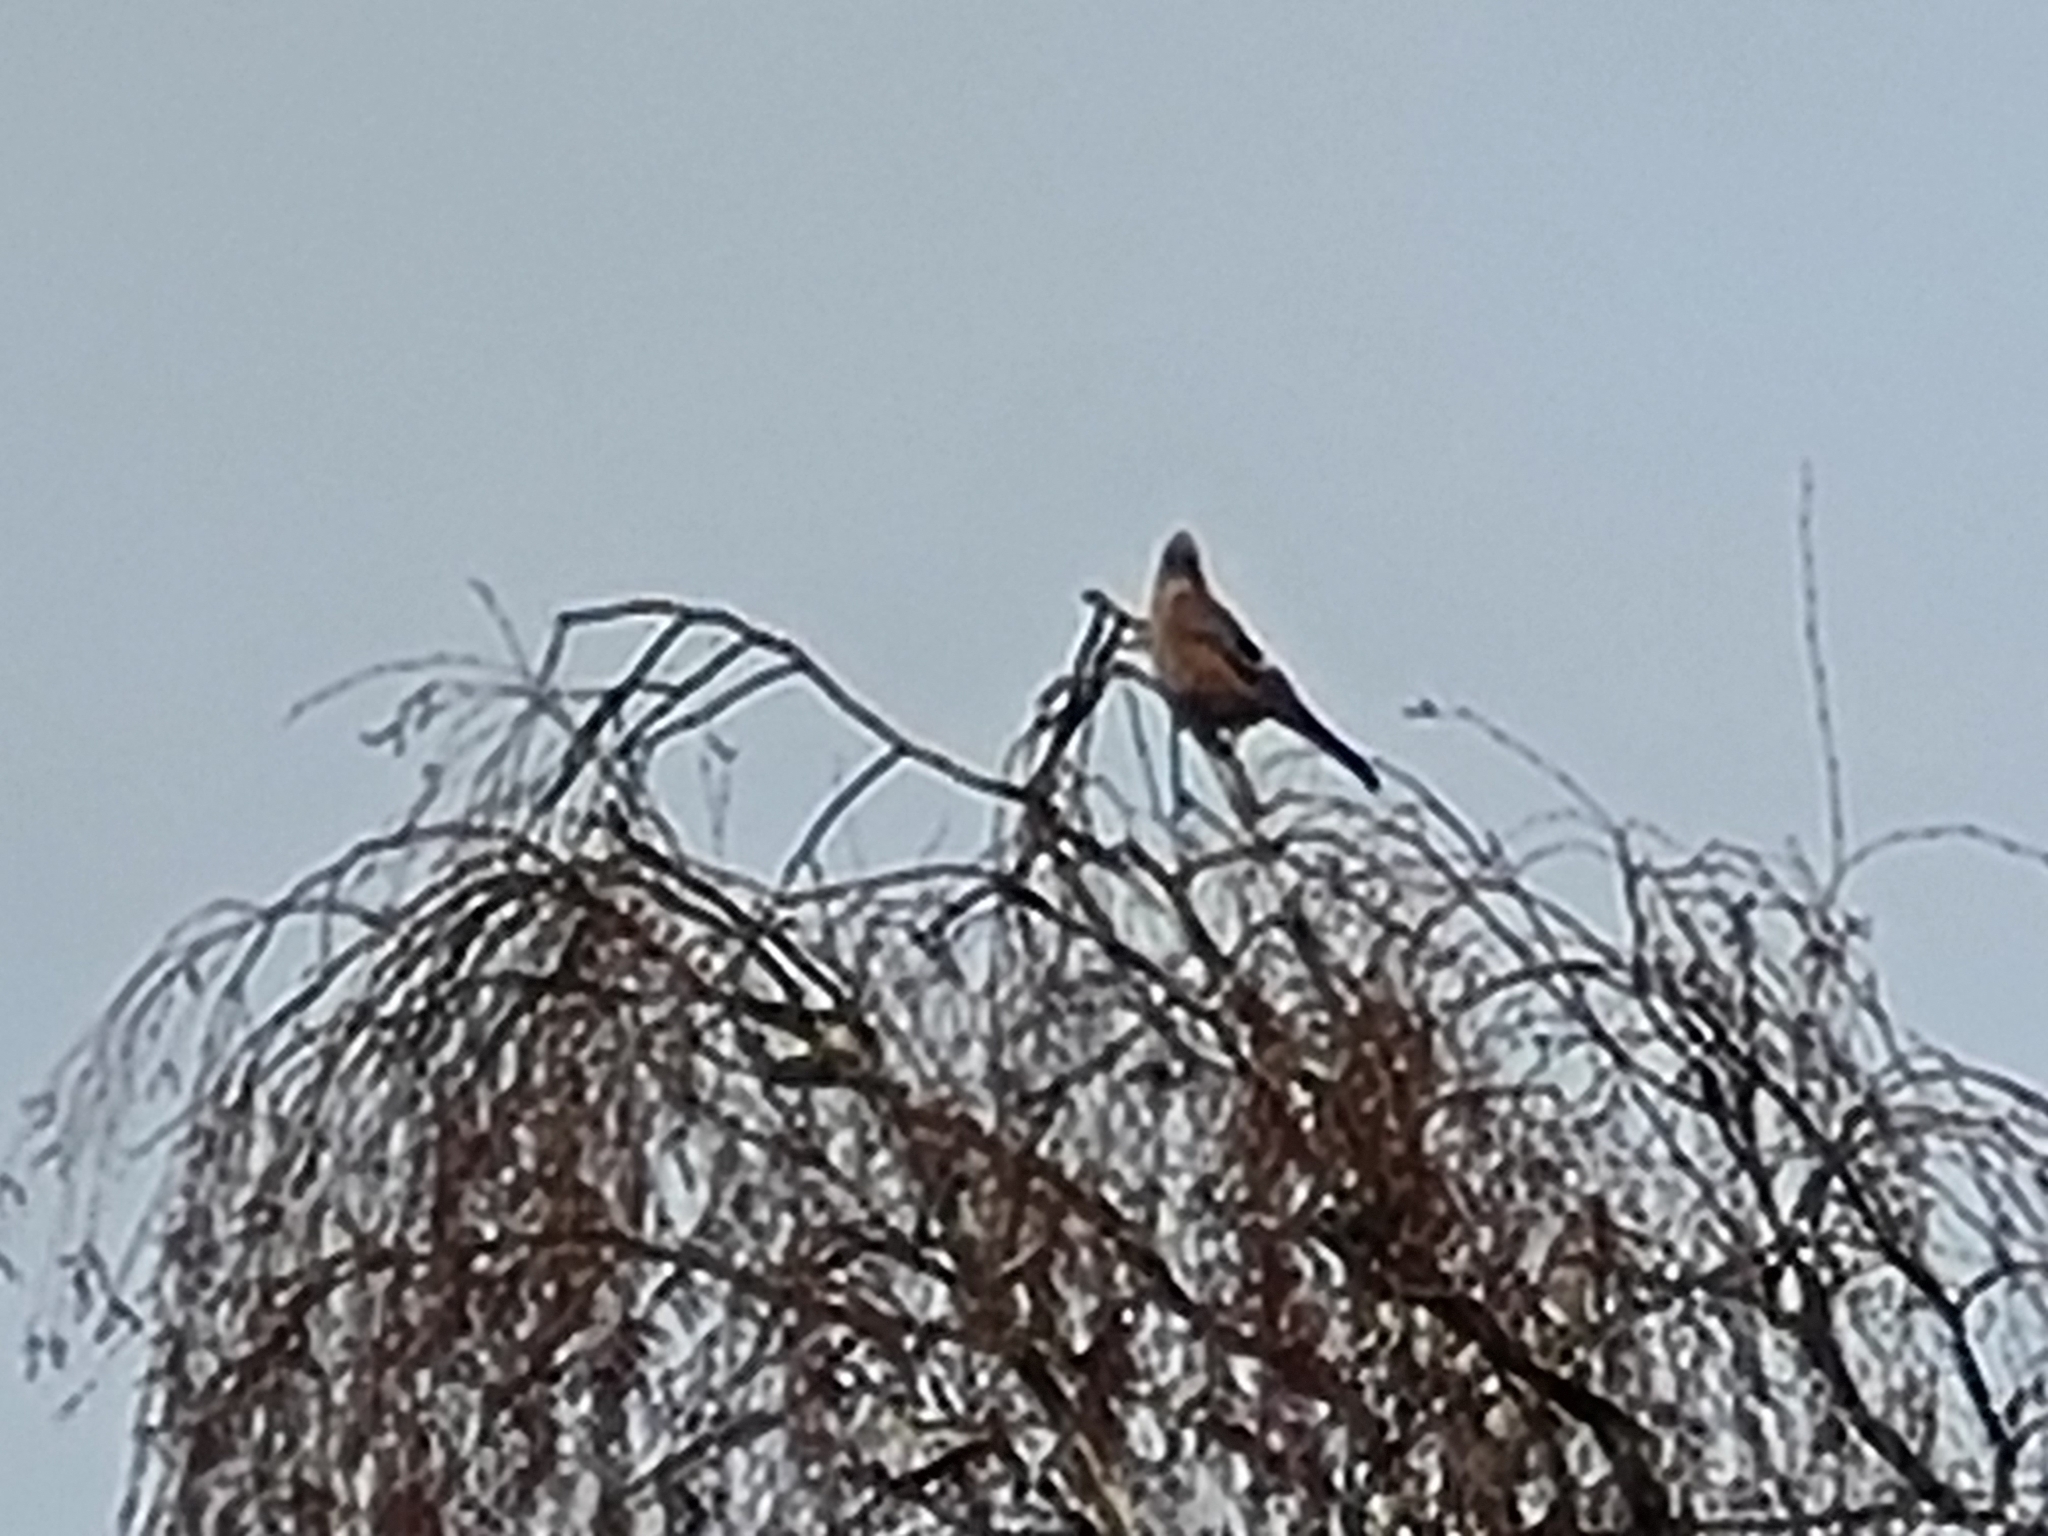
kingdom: Animalia
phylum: Chordata
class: Aves
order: Passeriformes
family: Corvidae
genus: Garrulus
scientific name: Garrulus glandarius
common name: Eurasian jay
